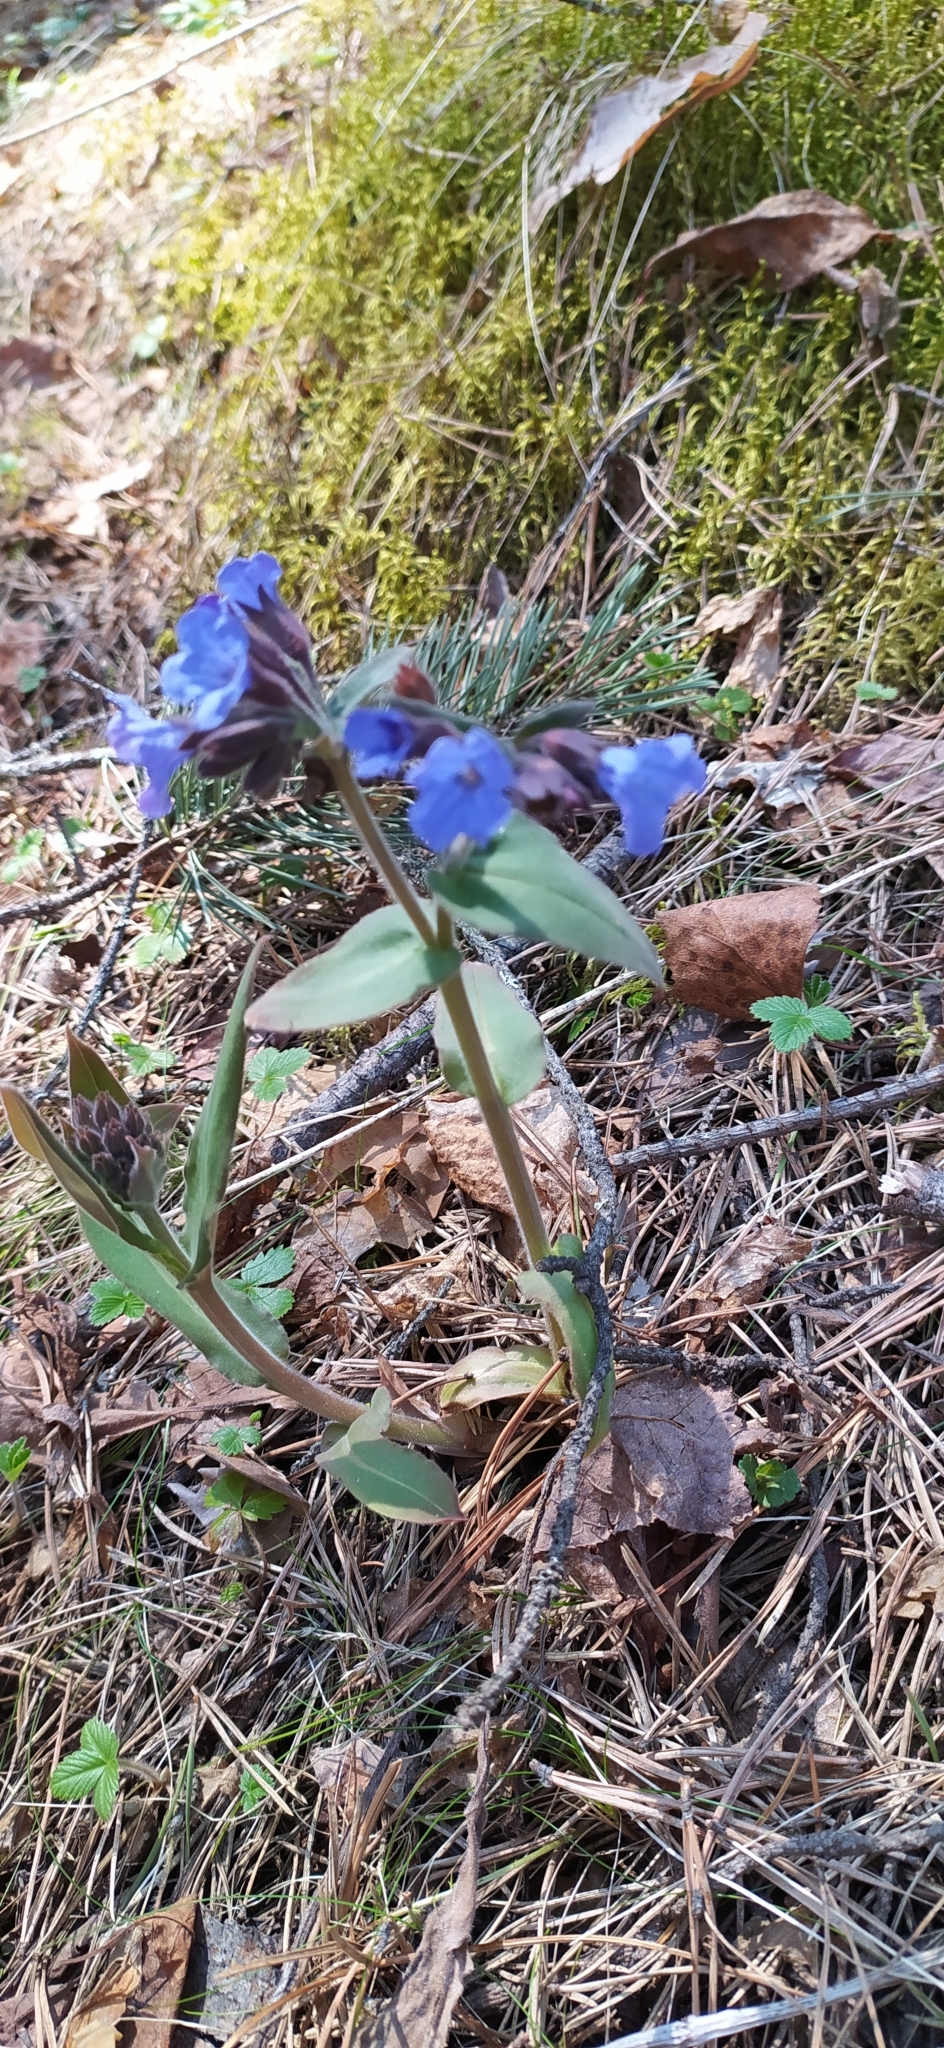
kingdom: Plantae
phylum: Tracheophyta
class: Magnoliopsida
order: Boraginales
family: Boraginaceae
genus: Pulmonaria
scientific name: Pulmonaria mollis
